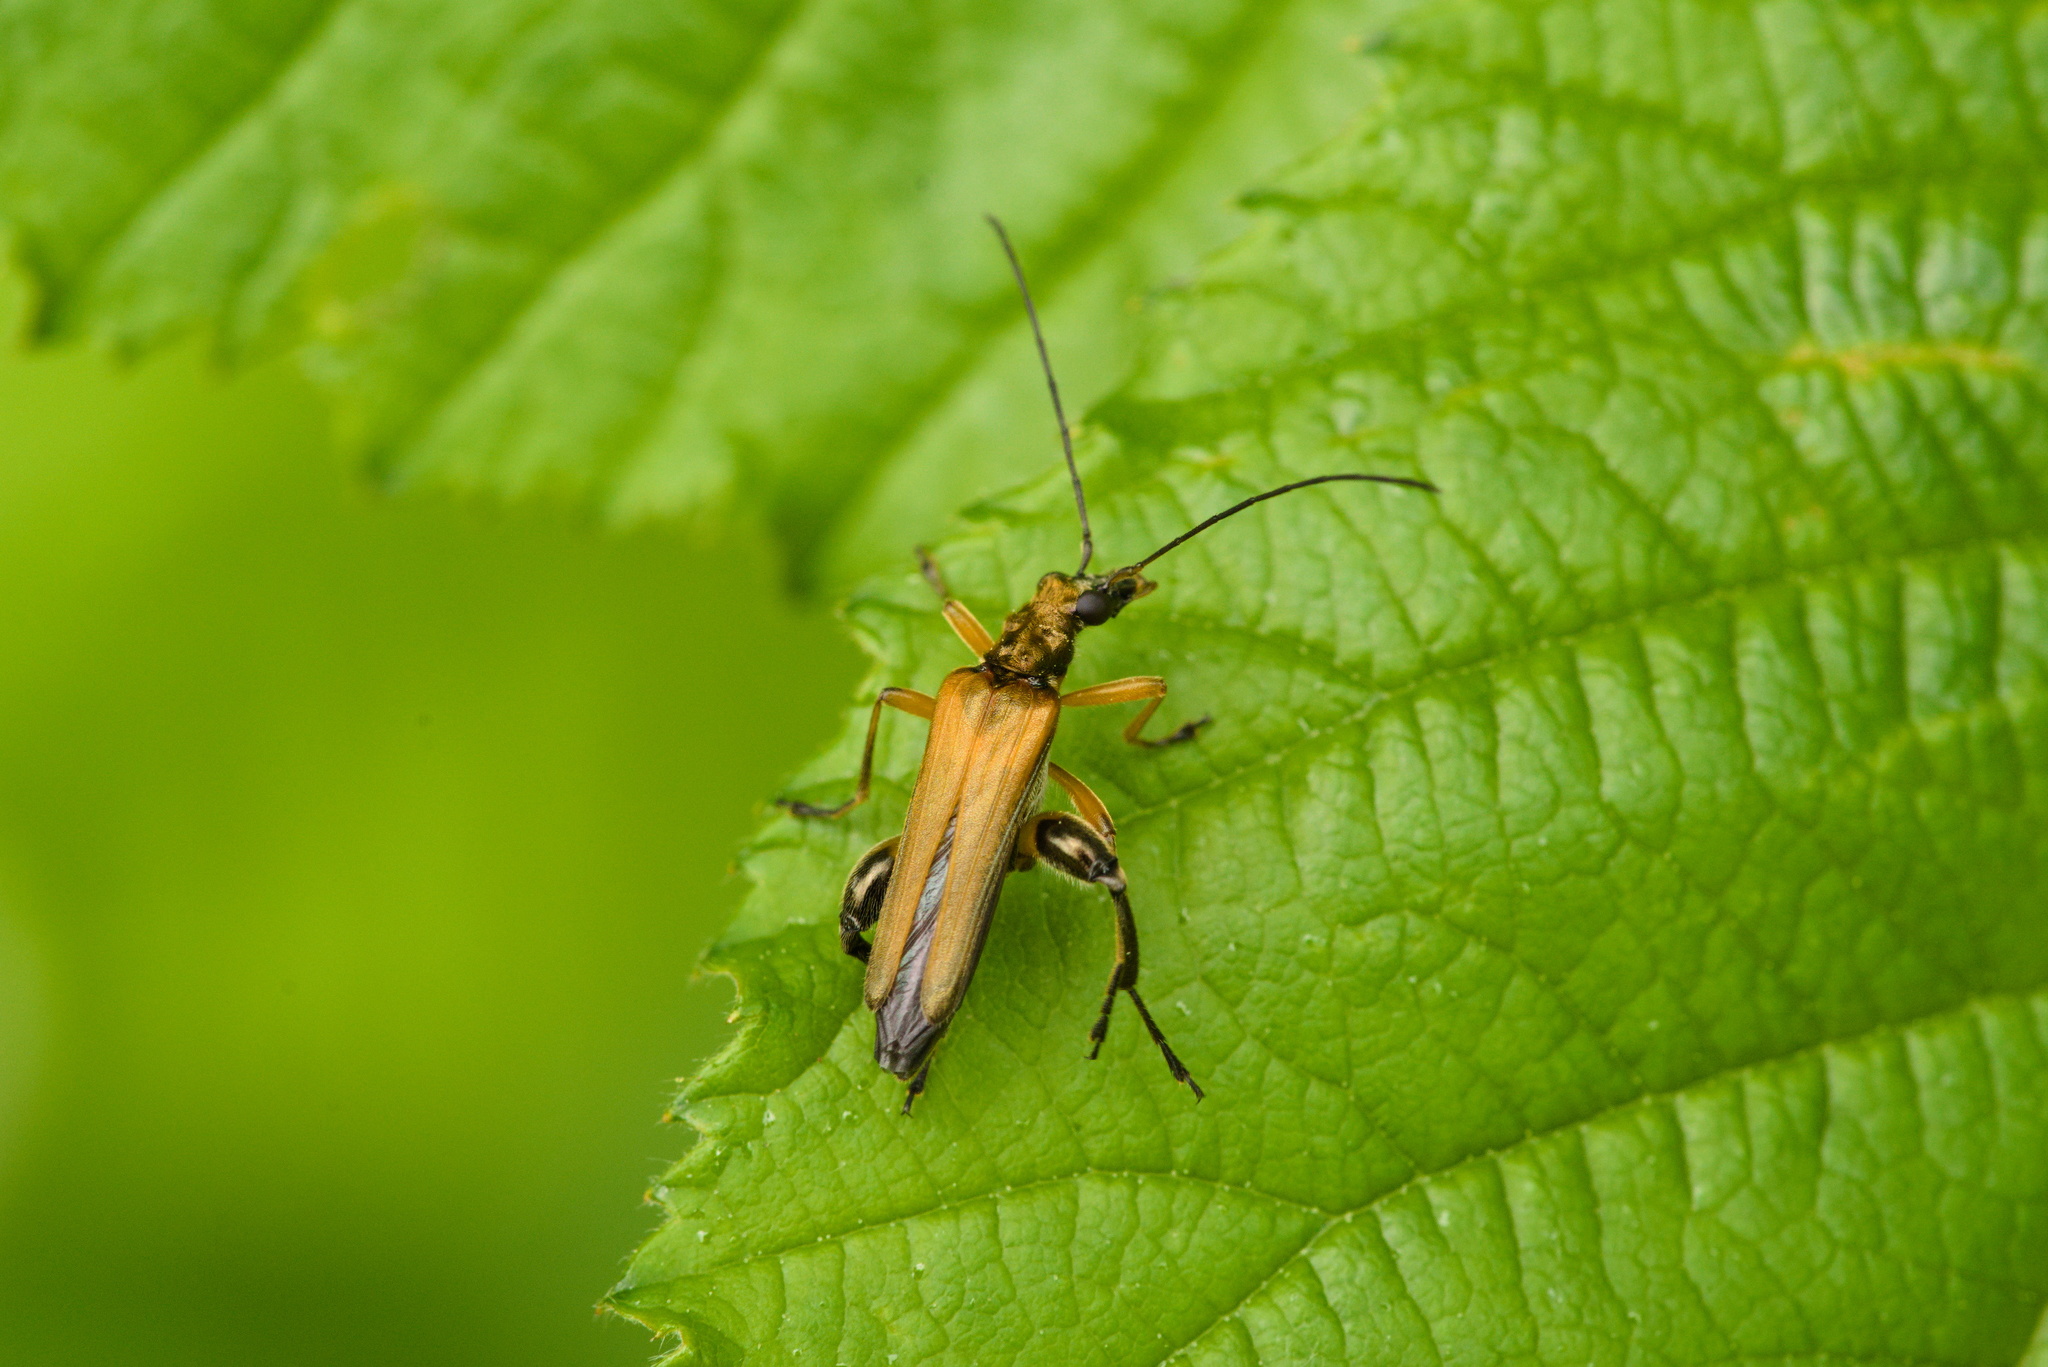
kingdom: Animalia
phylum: Arthropoda
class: Insecta
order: Coleoptera
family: Oedemeridae
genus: Oedemera
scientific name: Oedemera podagrariae
